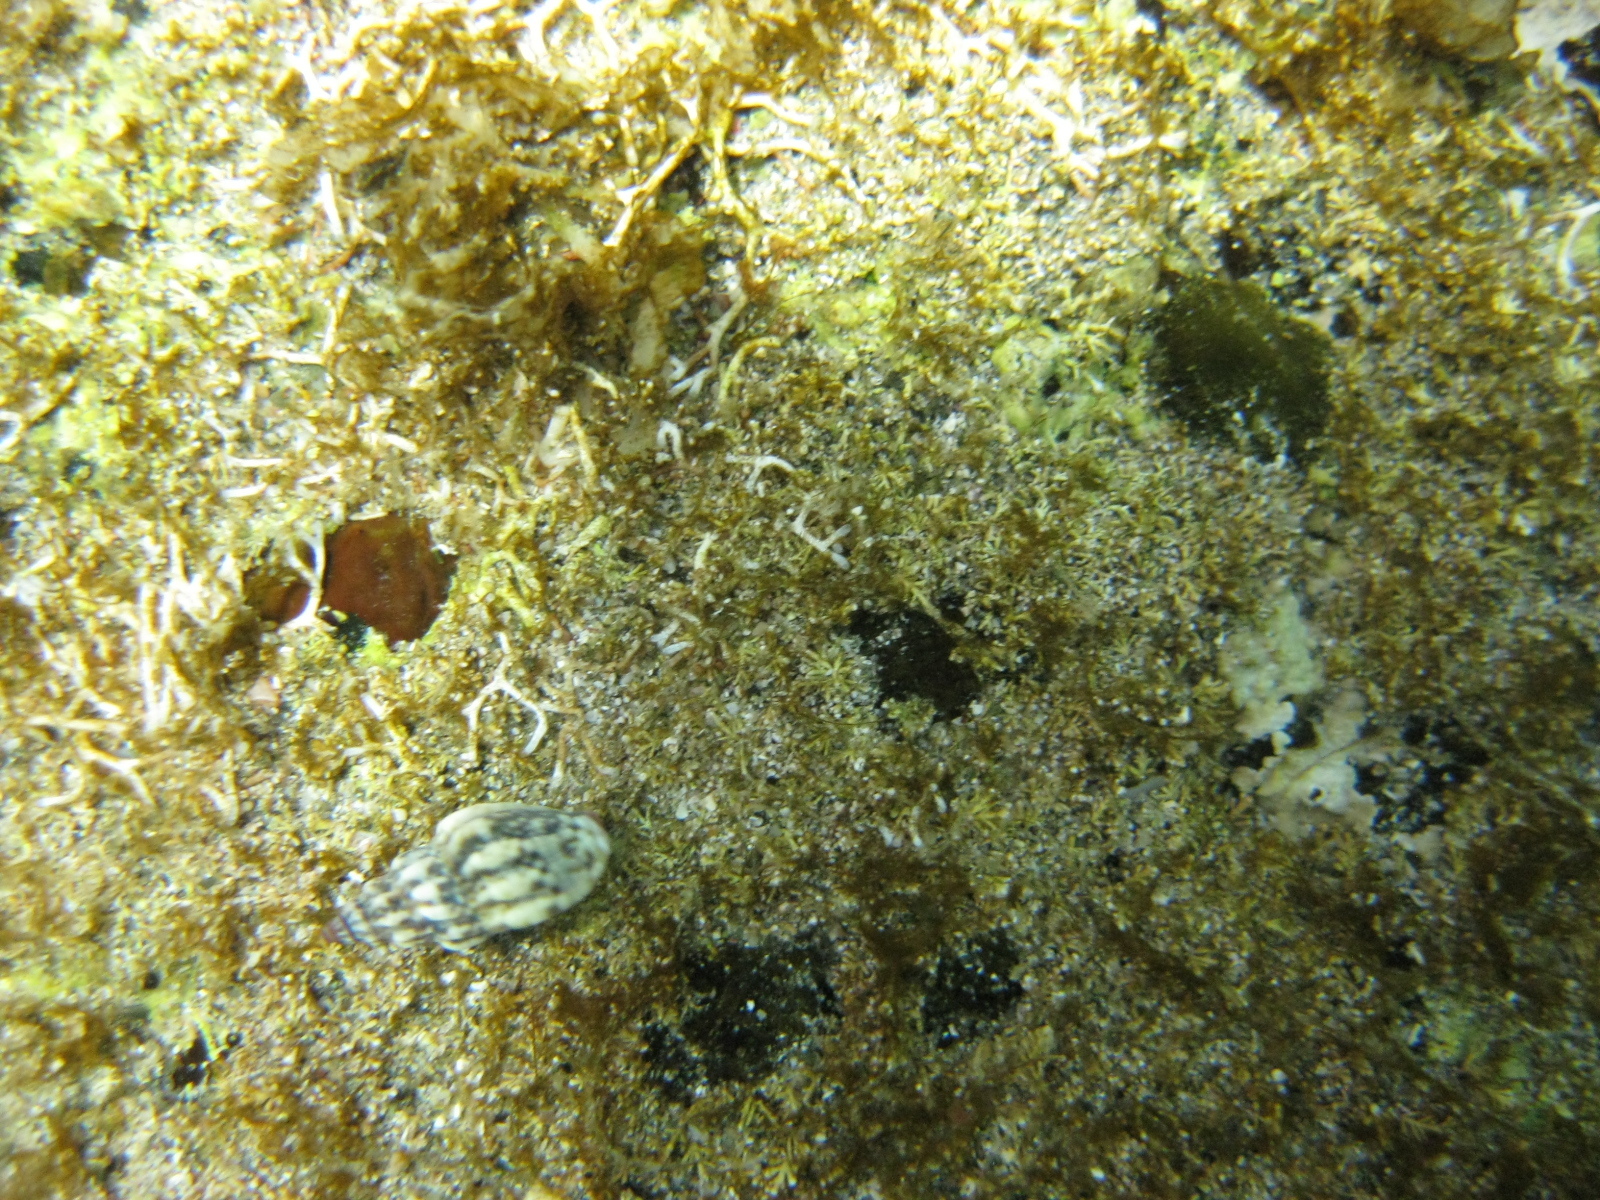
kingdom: Animalia
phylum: Mollusca
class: Gastropoda
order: Neogastropoda
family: Cominellidae
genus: Cominella
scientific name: Cominella quoyana
